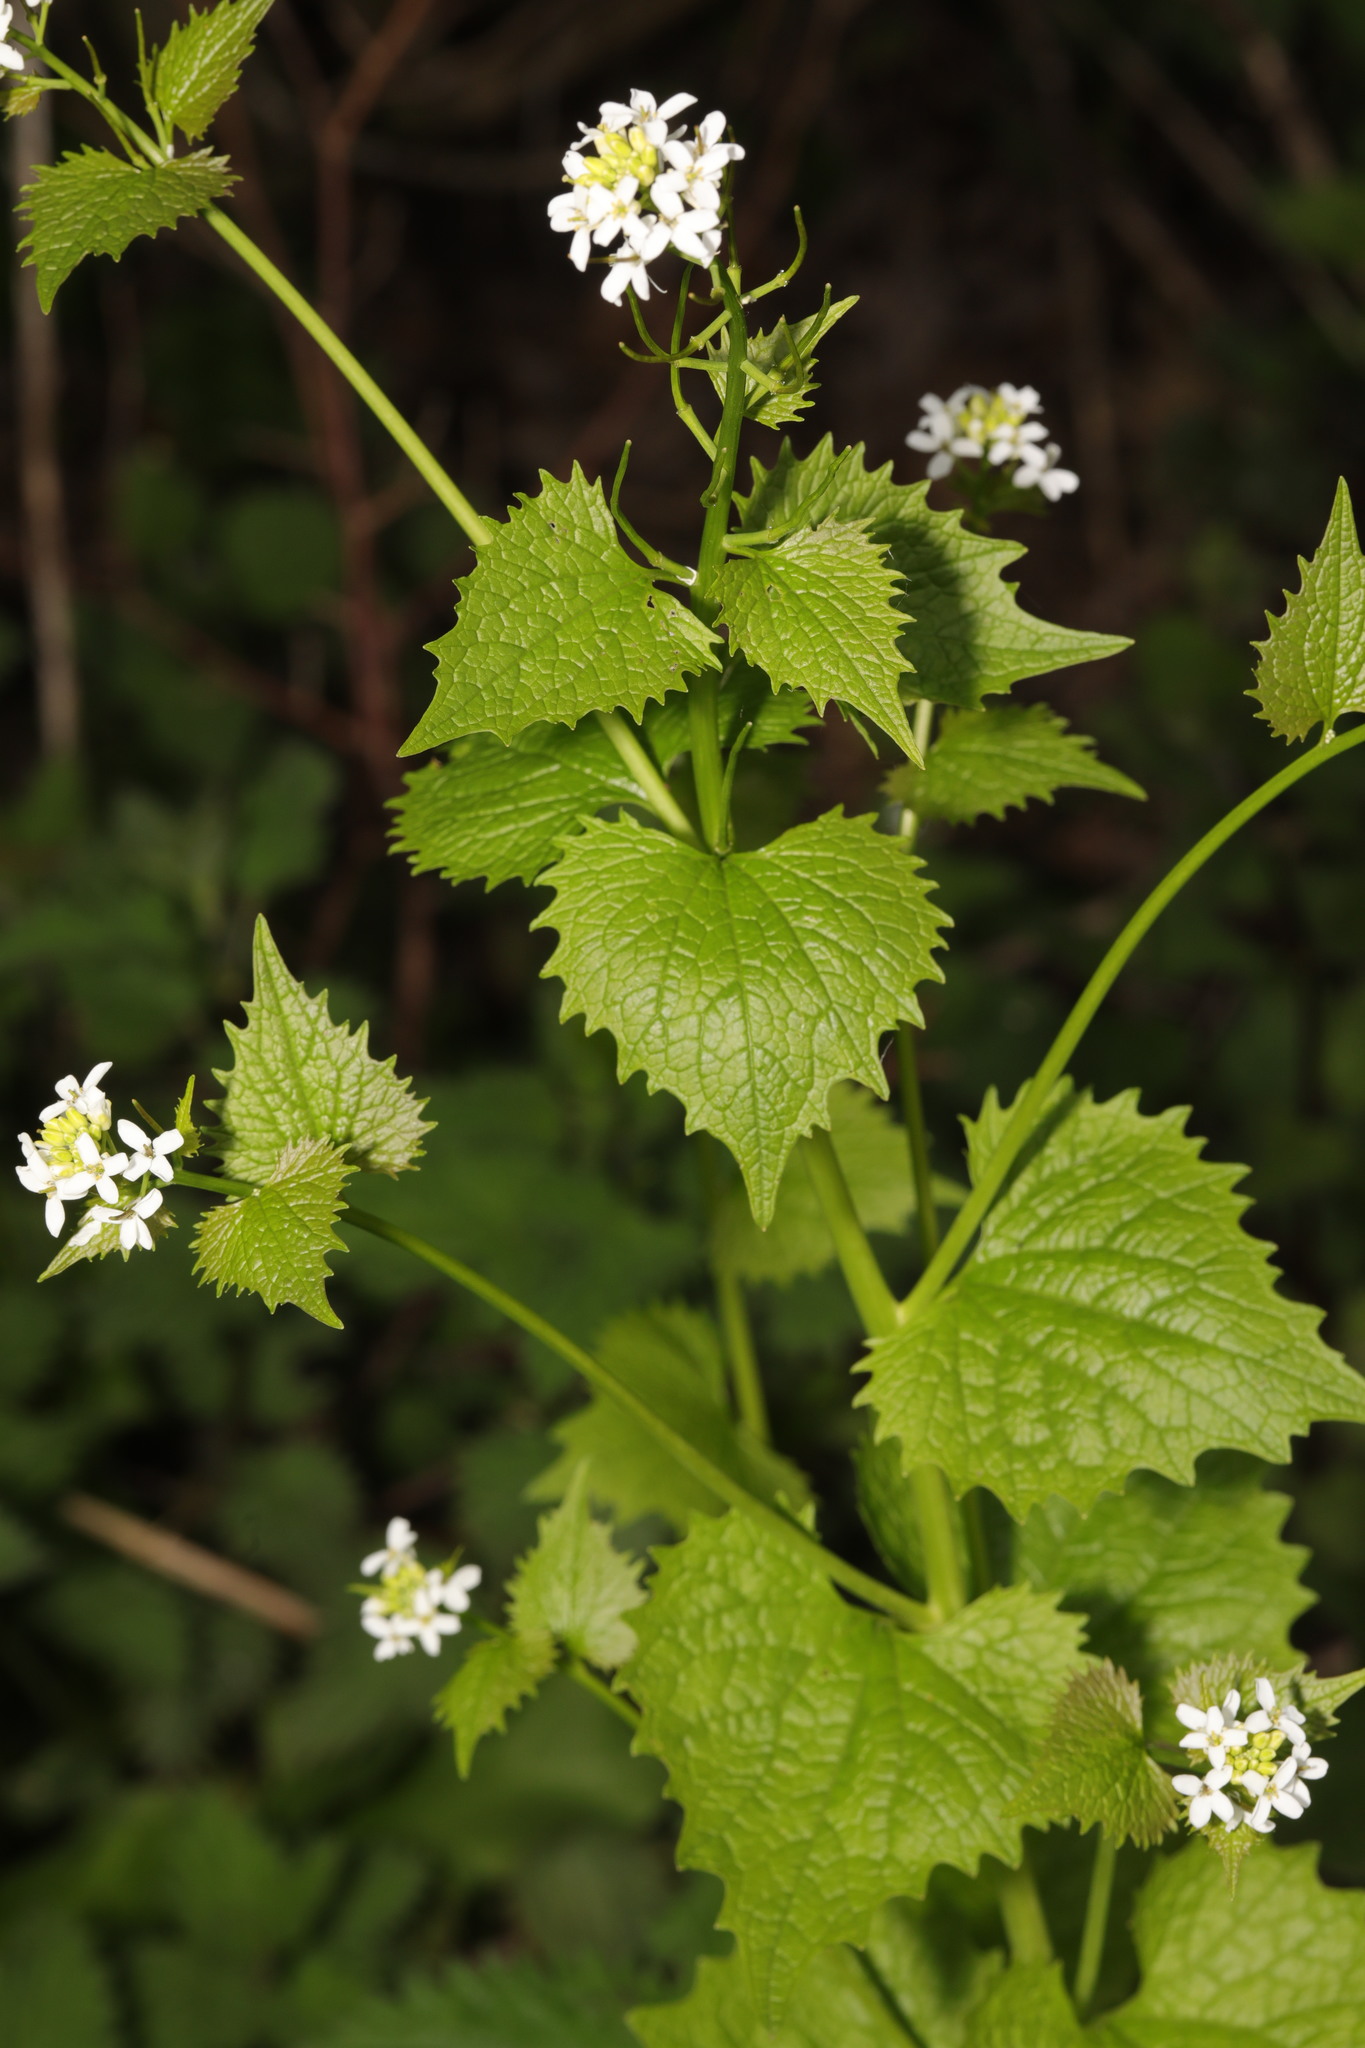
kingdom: Plantae
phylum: Tracheophyta
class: Magnoliopsida
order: Brassicales
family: Brassicaceae
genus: Alliaria
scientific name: Alliaria petiolata
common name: Garlic mustard
